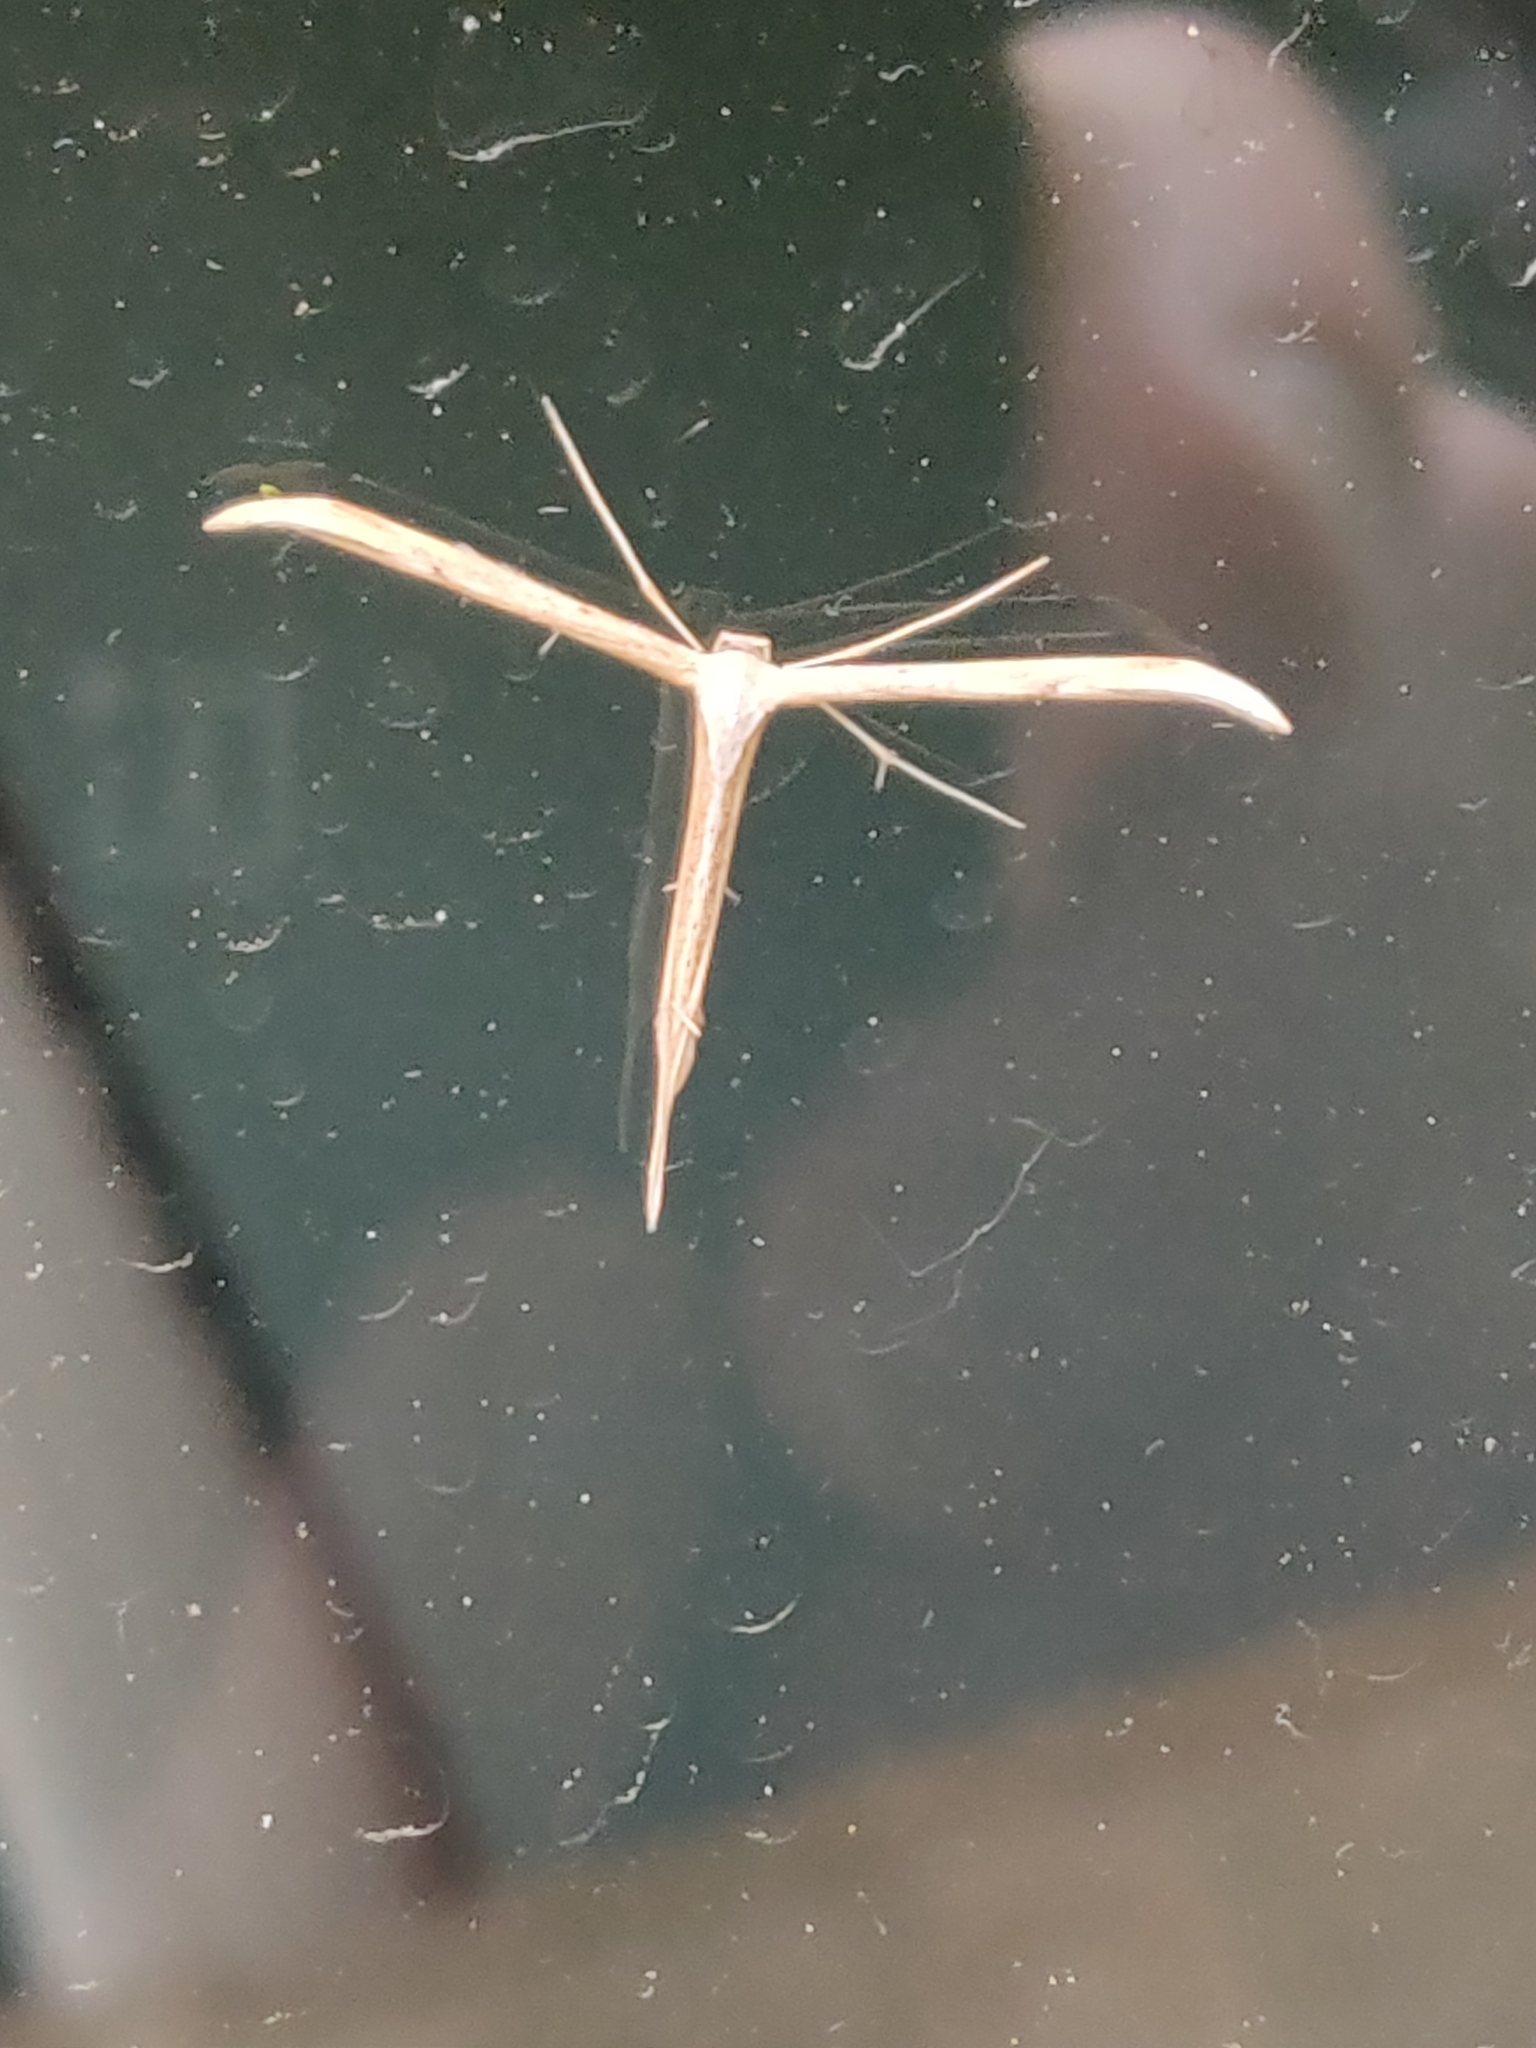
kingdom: Animalia
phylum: Arthropoda
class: Insecta
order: Lepidoptera
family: Pterophoridae
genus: Emmelina
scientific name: Emmelina monodactyla
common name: Common plume
